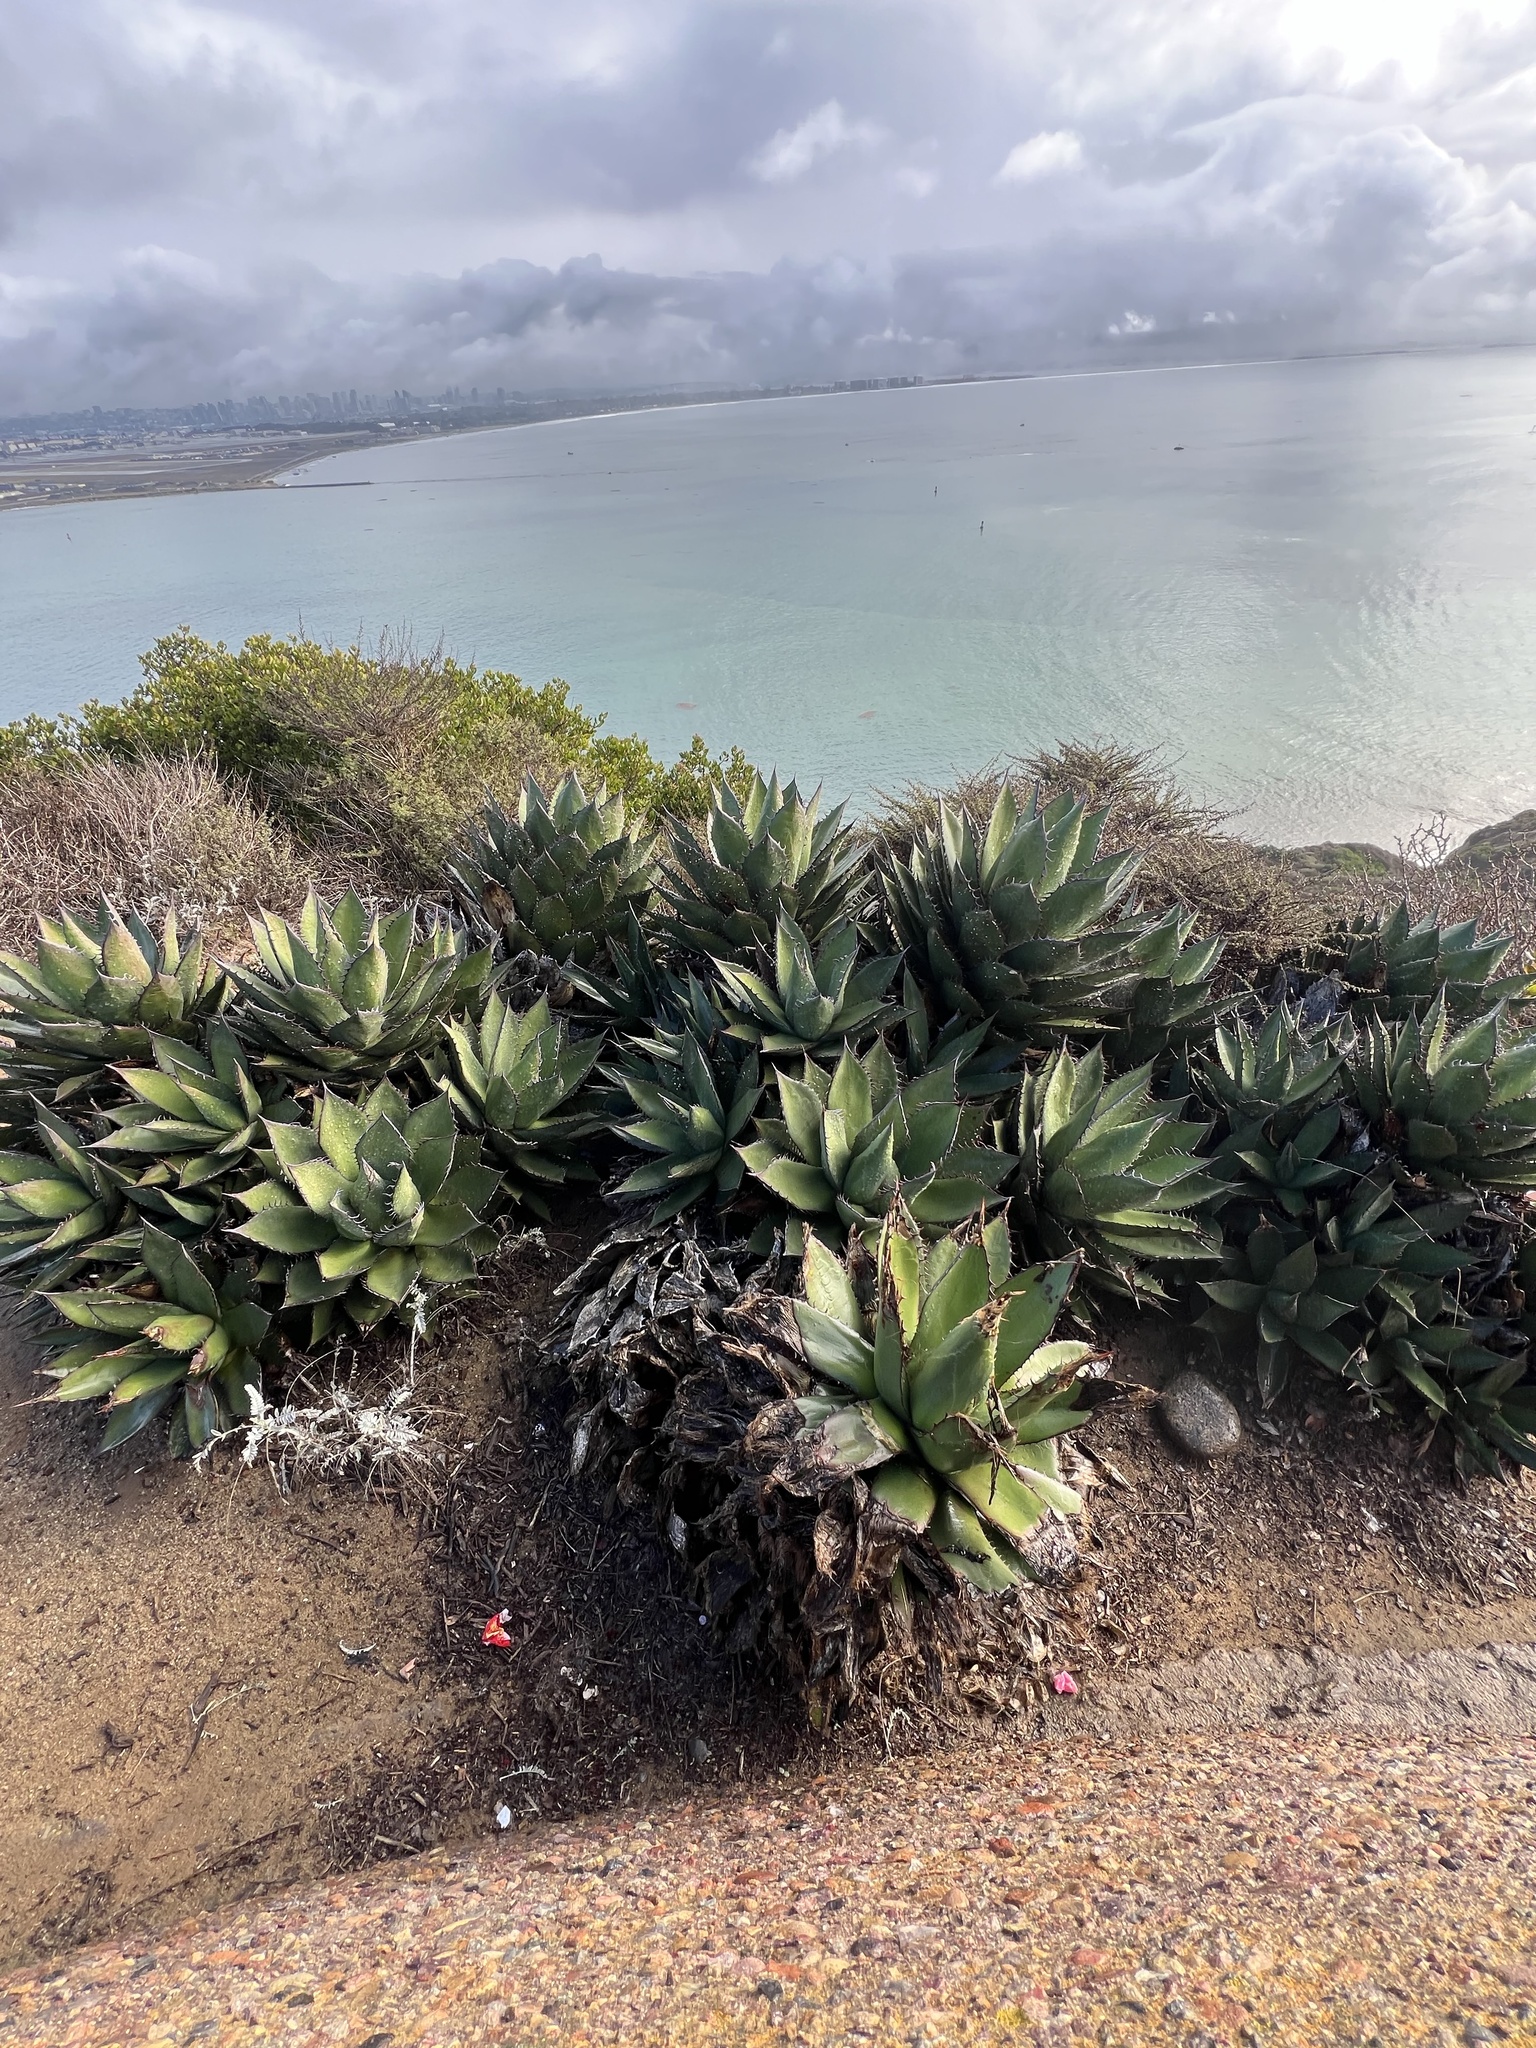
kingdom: Plantae
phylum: Tracheophyta
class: Liliopsida
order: Asparagales
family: Asparagaceae
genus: Agave
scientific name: Agave shawii
